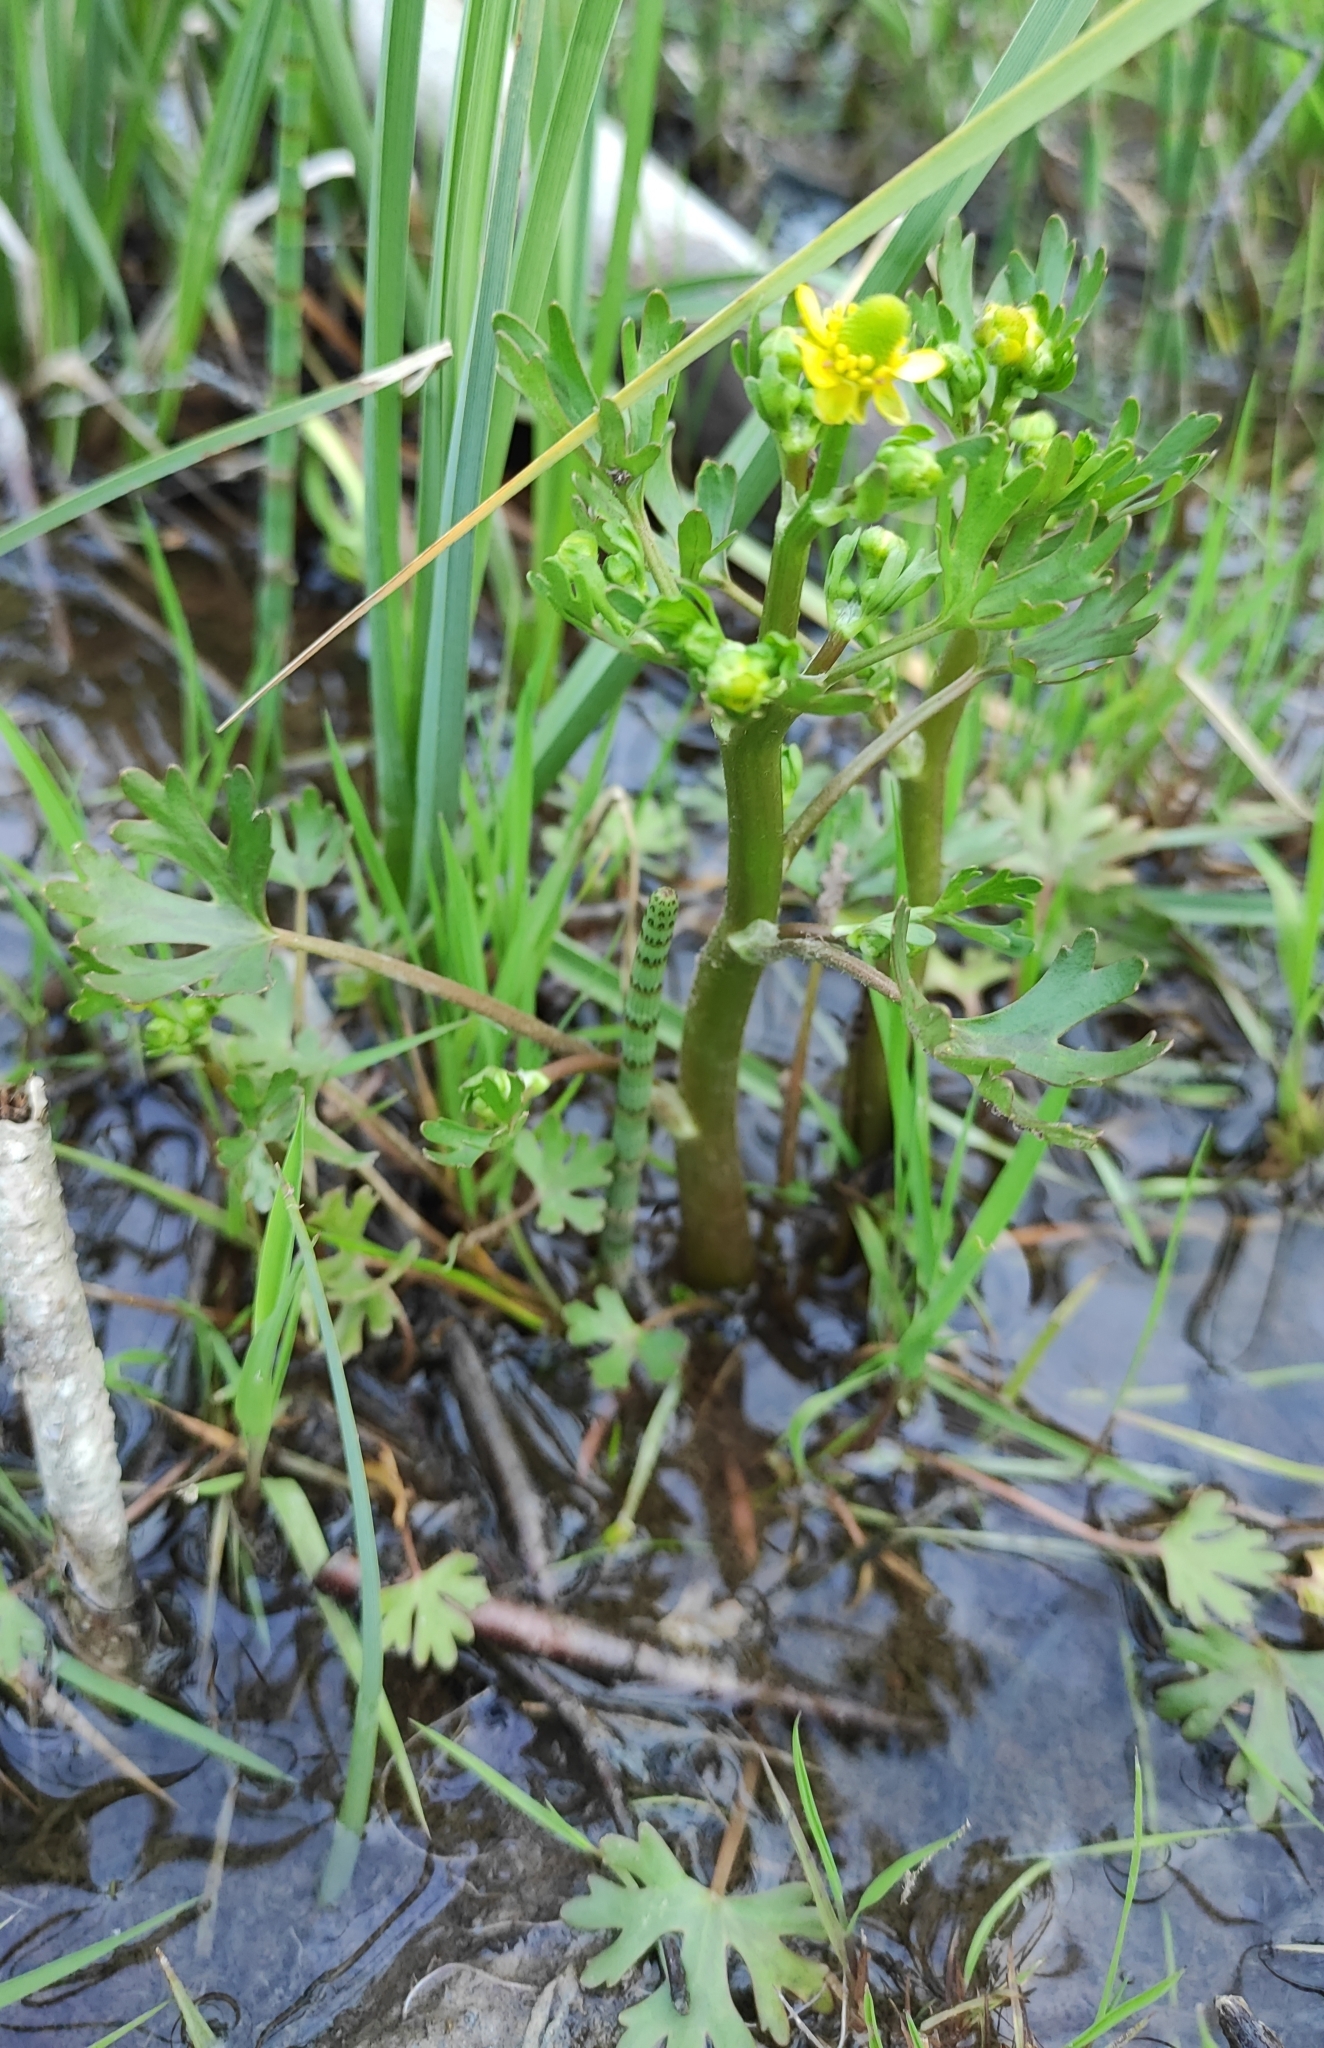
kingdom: Plantae
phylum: Tracheophyta
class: Magnoliopsida
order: Ranunculales
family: Ranunculaceae
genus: Ranunculus
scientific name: Ranunculus sceleratus
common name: Celery-leaved buttercup
